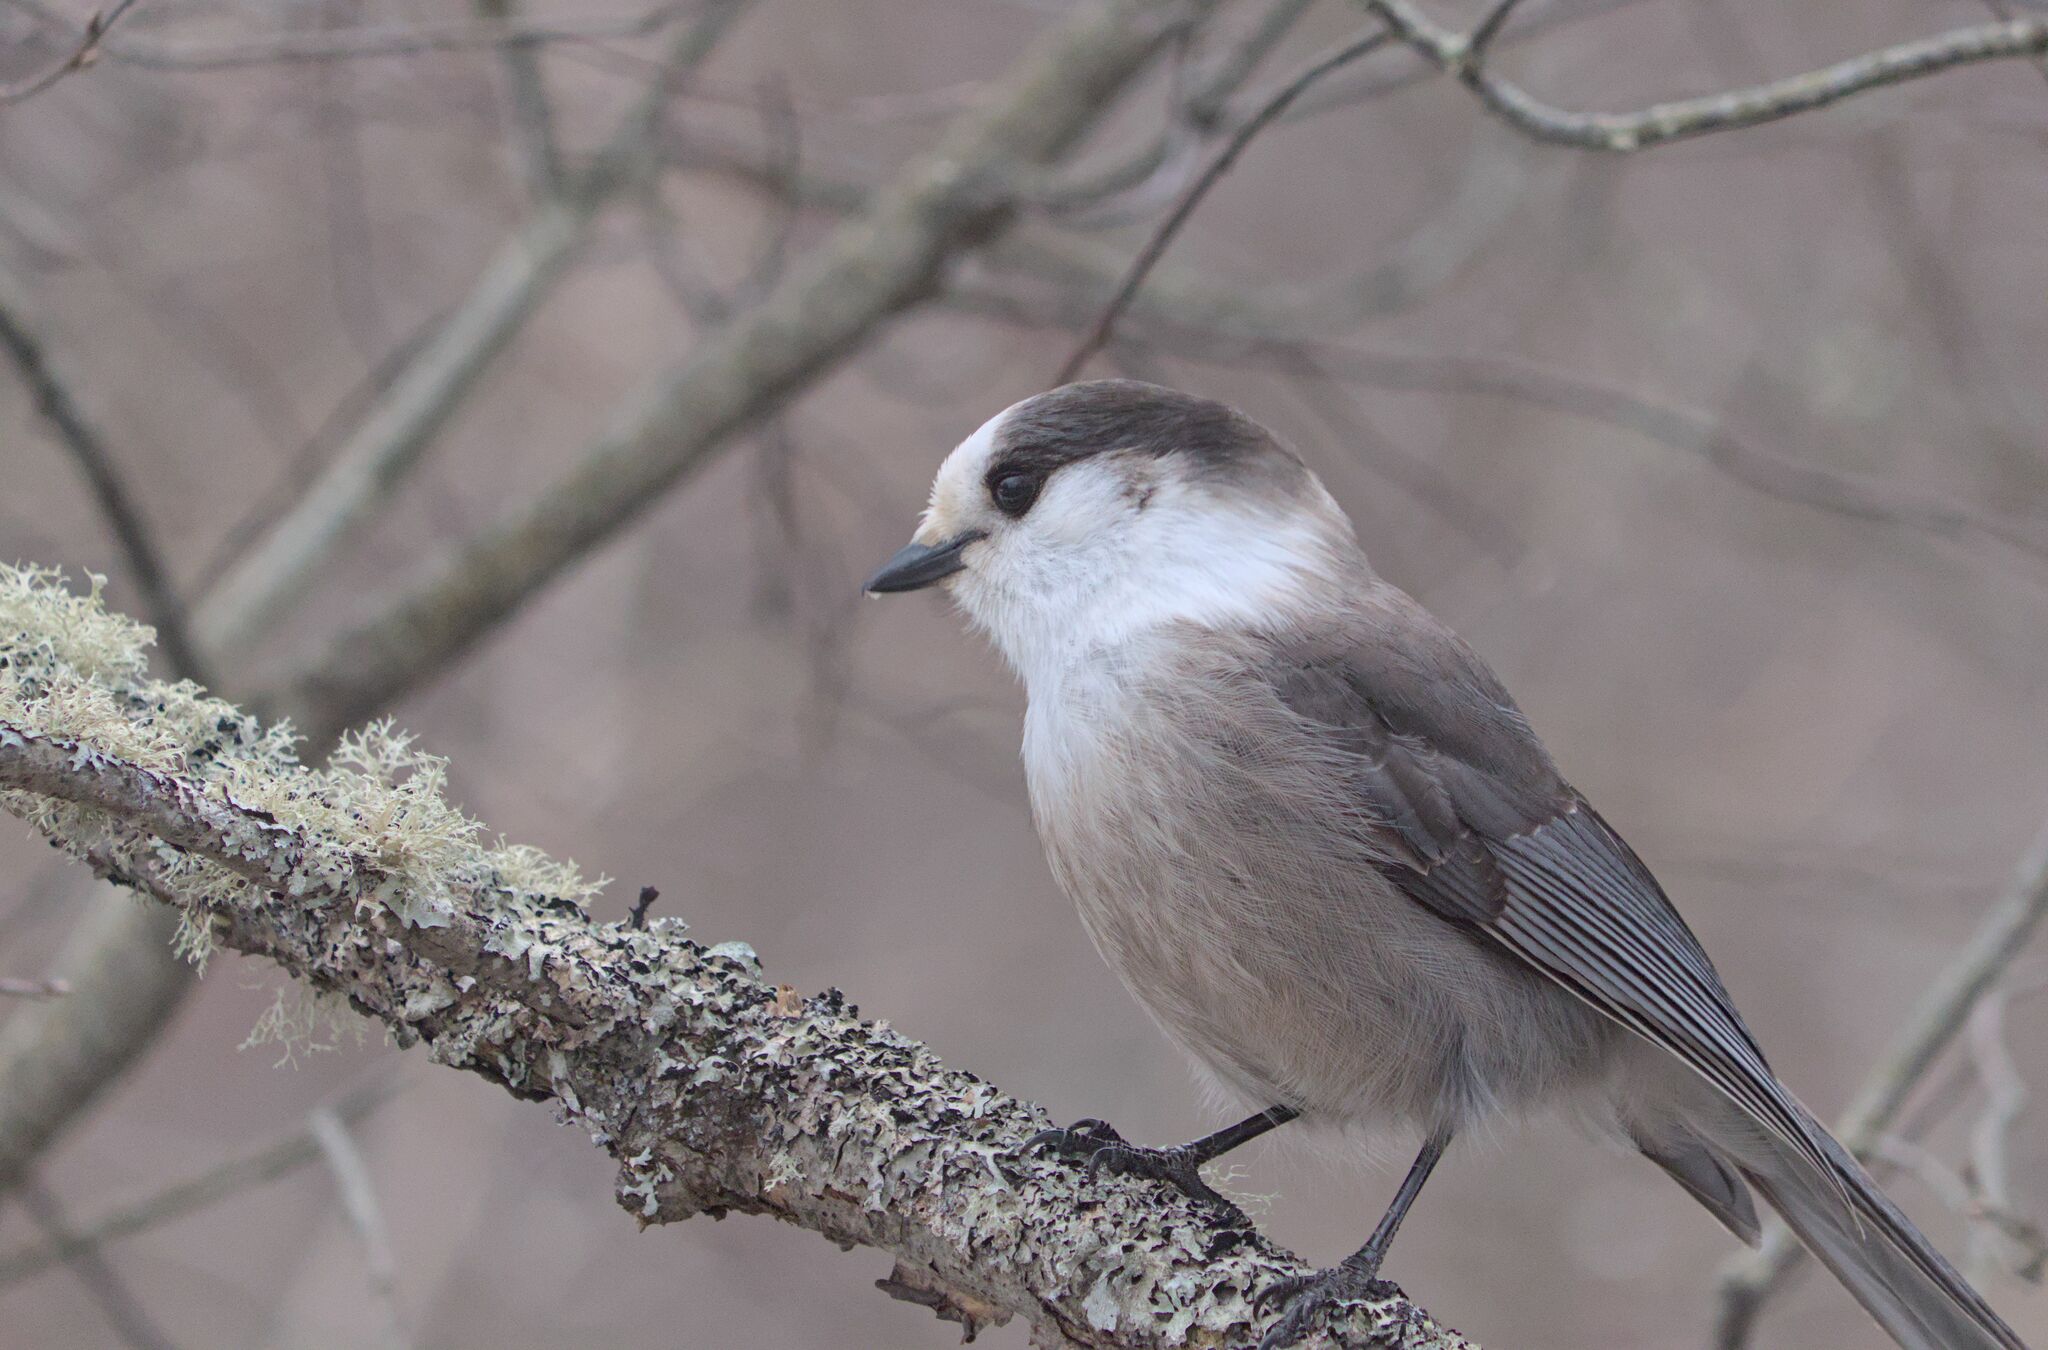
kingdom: Animalia
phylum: Chordata
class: Aves
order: Passeriformes
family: Corvidae
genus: Perisoreus
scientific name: Perisoreus canadensis
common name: Gray jay
